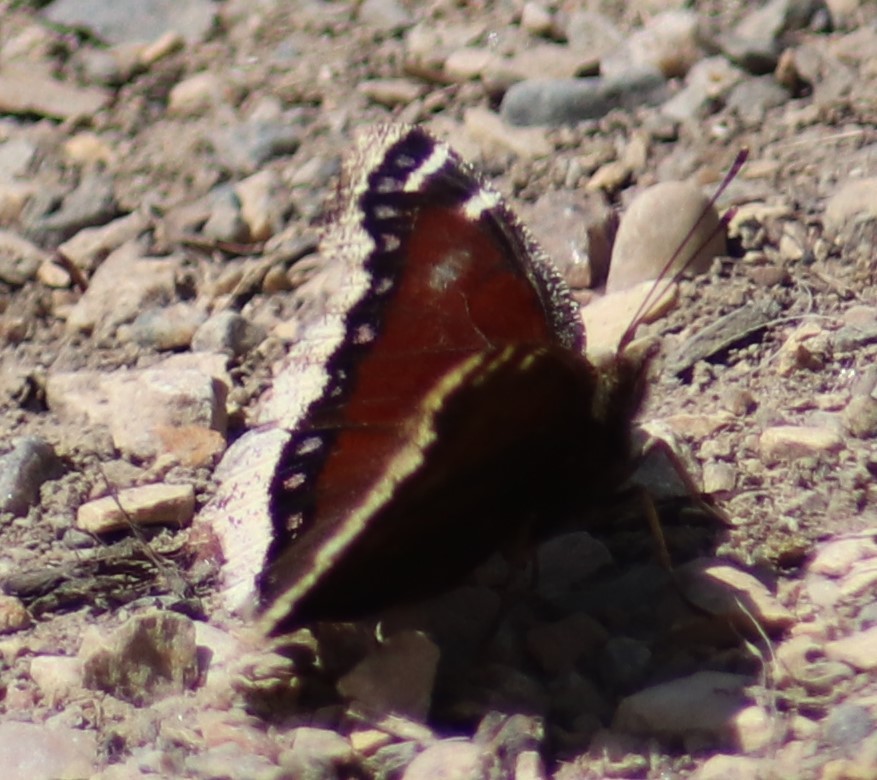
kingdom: Animalia
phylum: Arthropoda
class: Insecta
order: Lepidoptera
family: Nymphalidae
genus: Nymphalis
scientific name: Nymphalis antiopa
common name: Camberwell beauty
